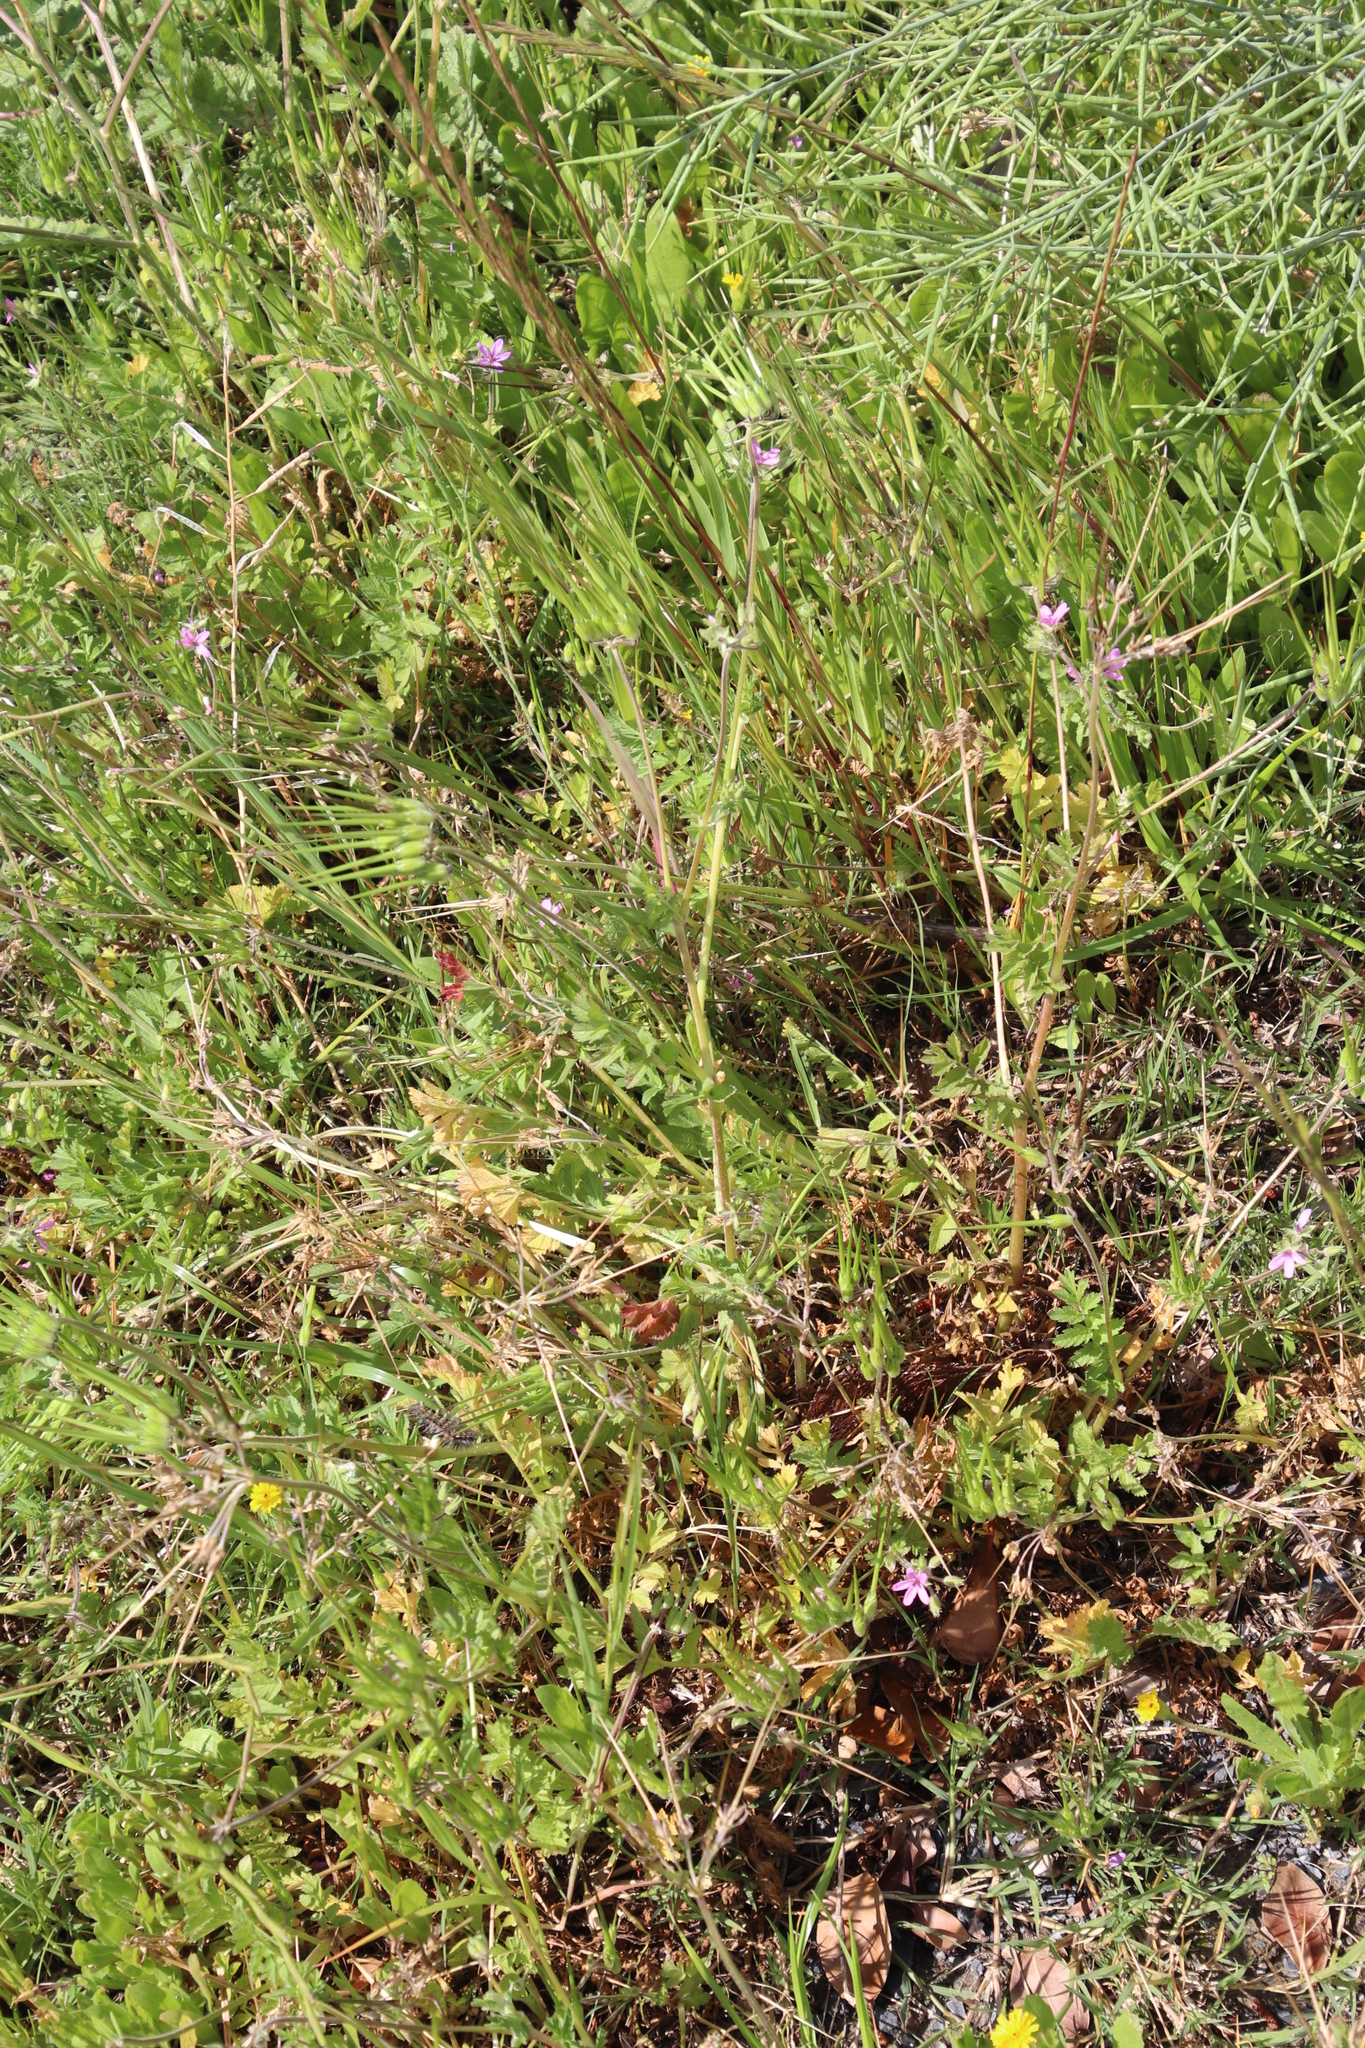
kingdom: Plantae
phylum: Tracheophyta
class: Magnoliopsida
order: Geraniales
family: Geraniaceae
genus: Erodium
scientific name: Erodium moschatum
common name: Musk stork's-bill
